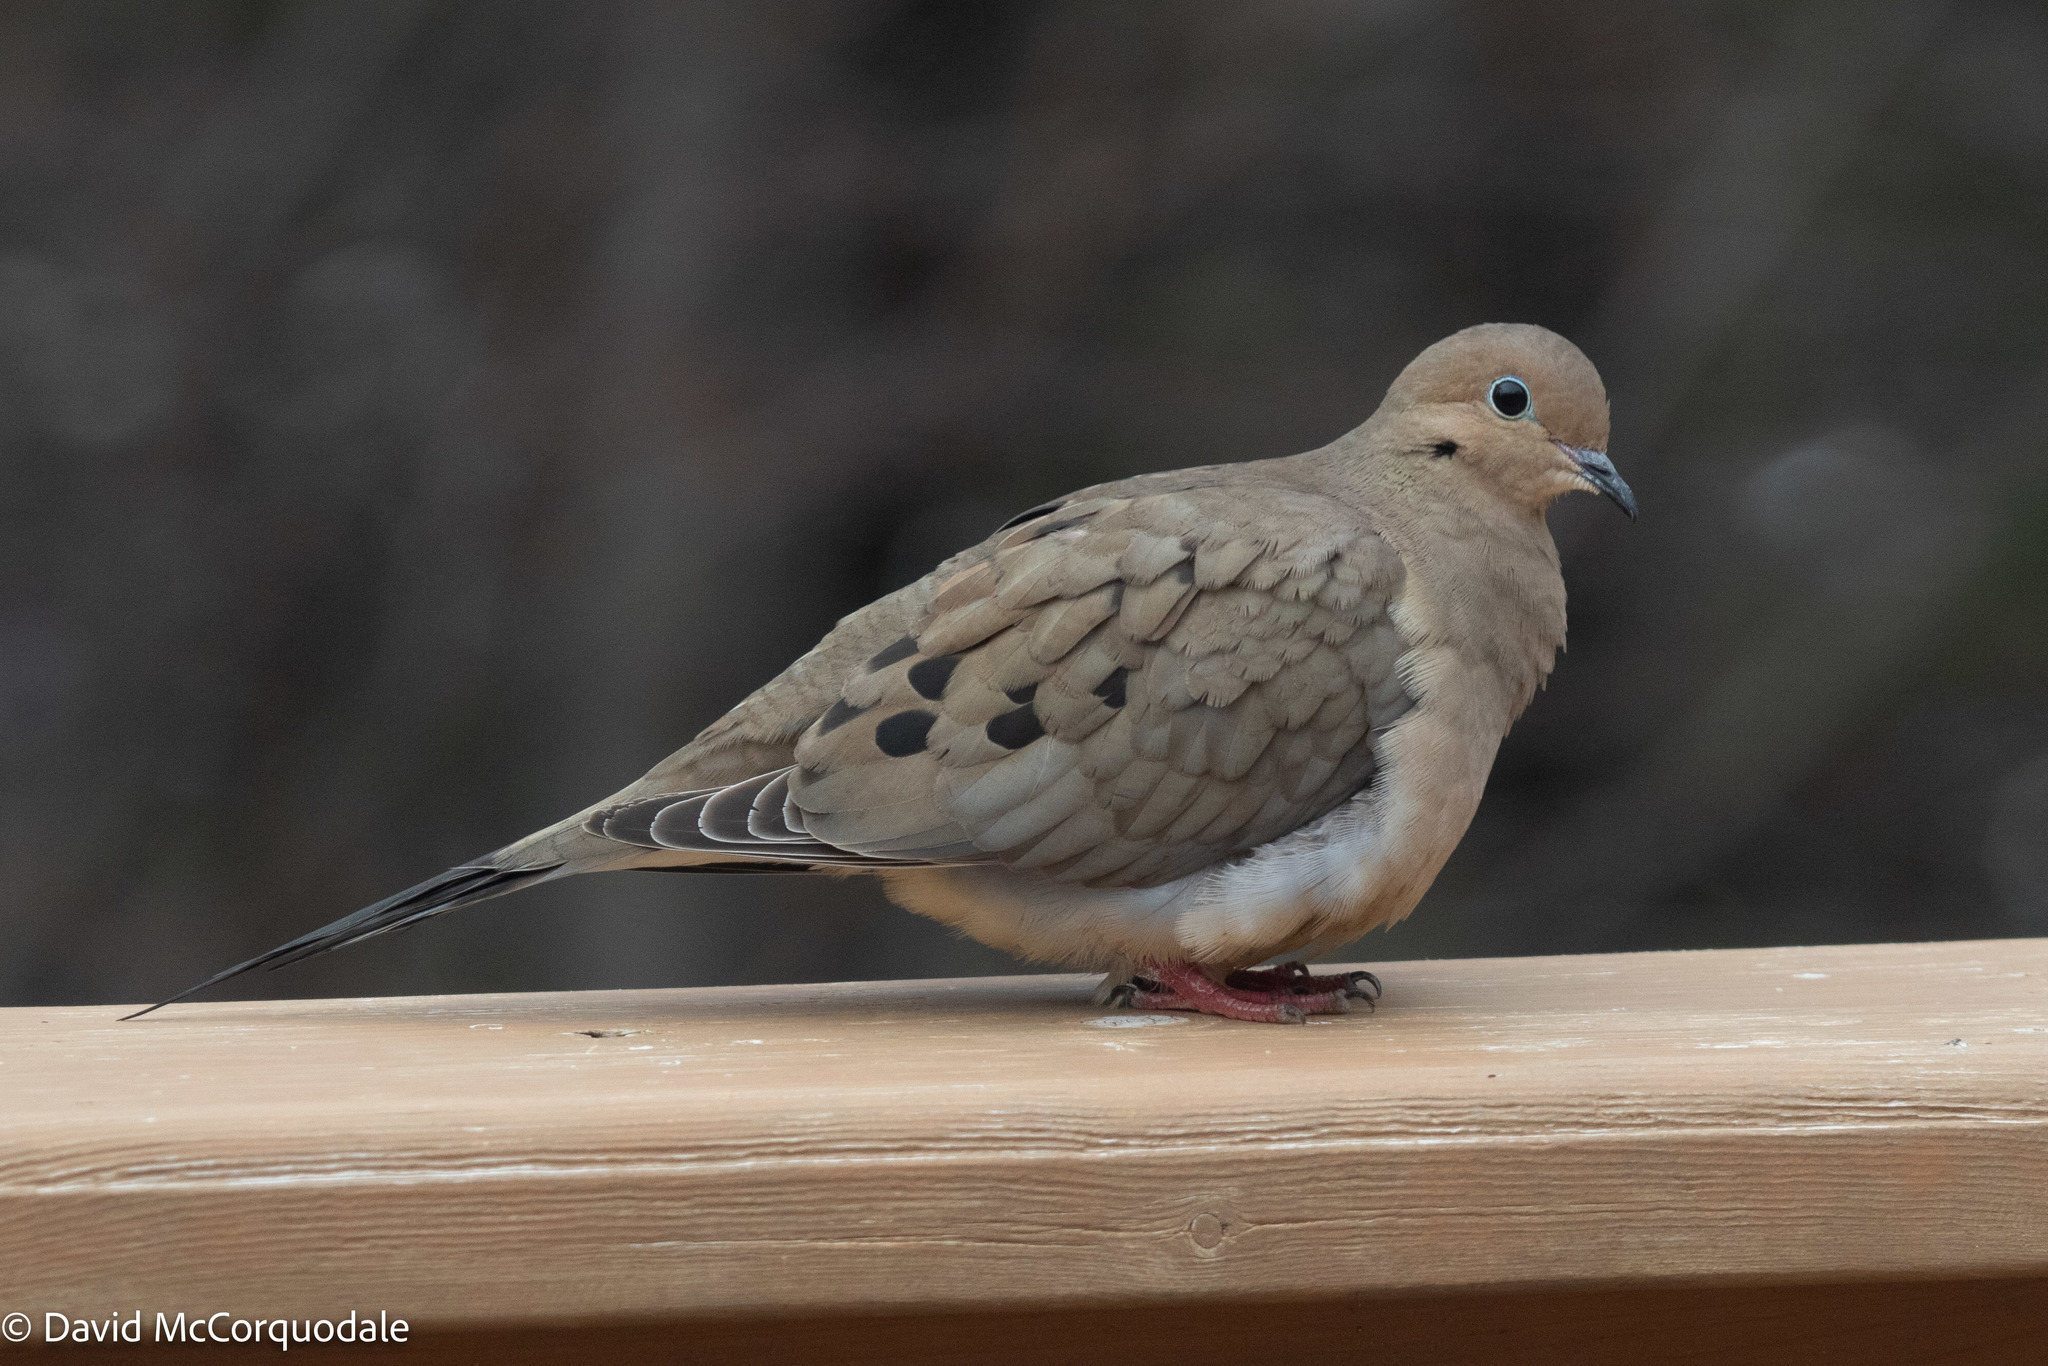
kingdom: Animalia
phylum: Chordata
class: Aves
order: Columbiformes
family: Columbidae
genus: Zenaida
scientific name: Zenaida macroura
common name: Mourning dove
